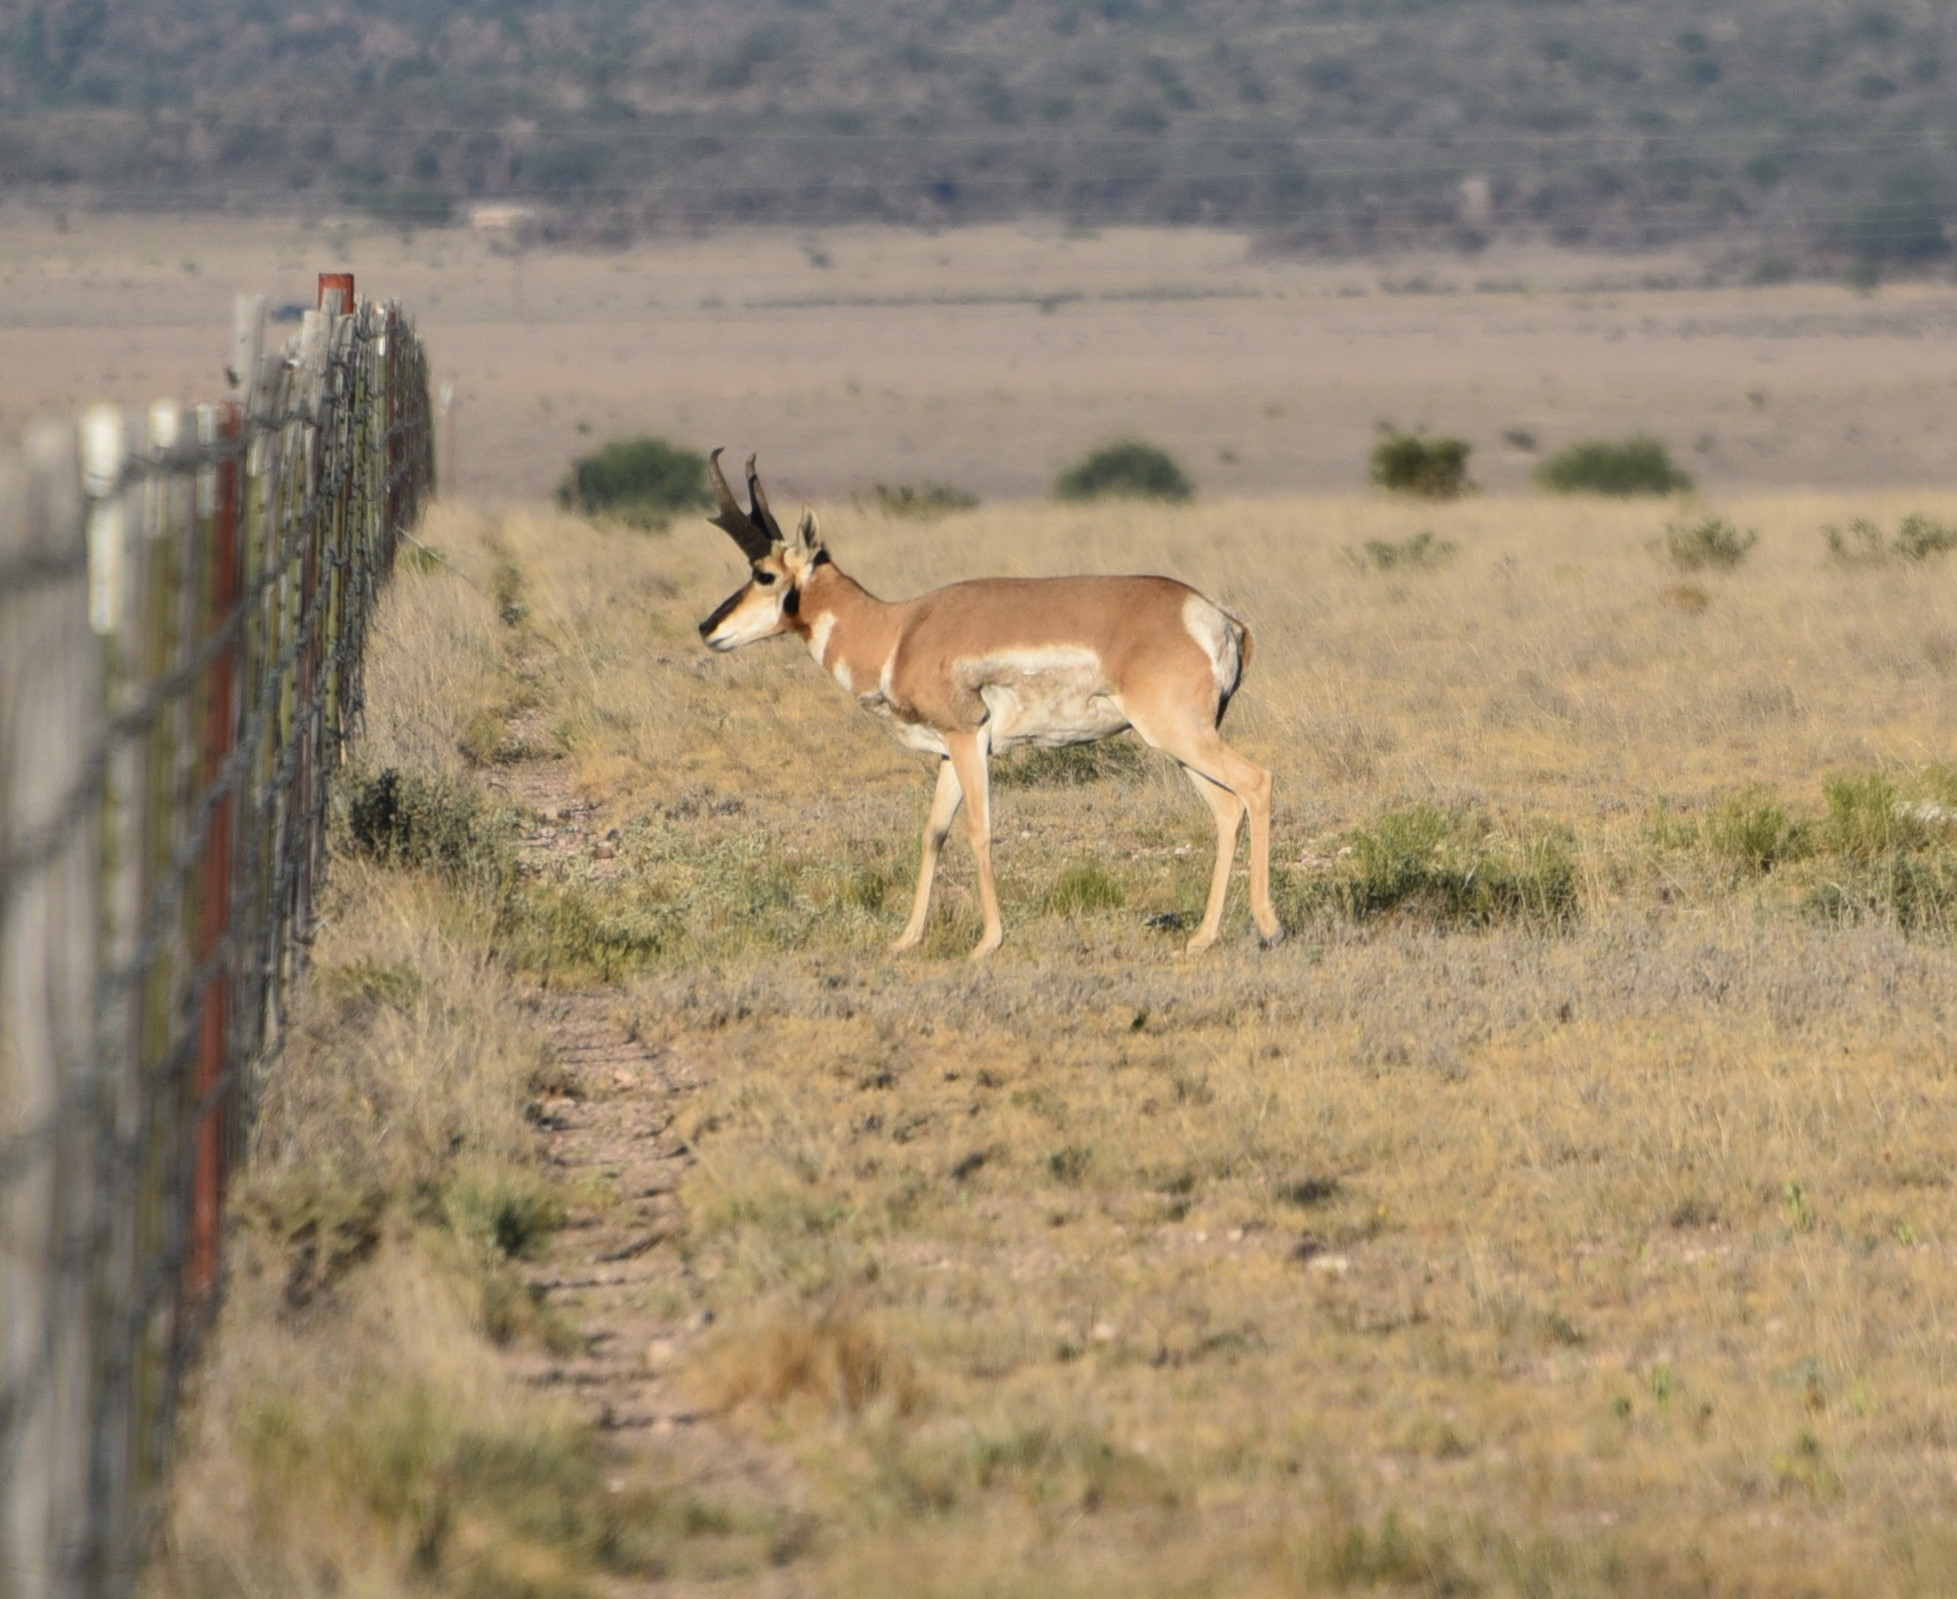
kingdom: Animalia
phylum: Chordata
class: Mammalia
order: Artiodactyla
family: Antilocapridae
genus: Antilocapra
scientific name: Antilocapra americana
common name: Pronghorn
